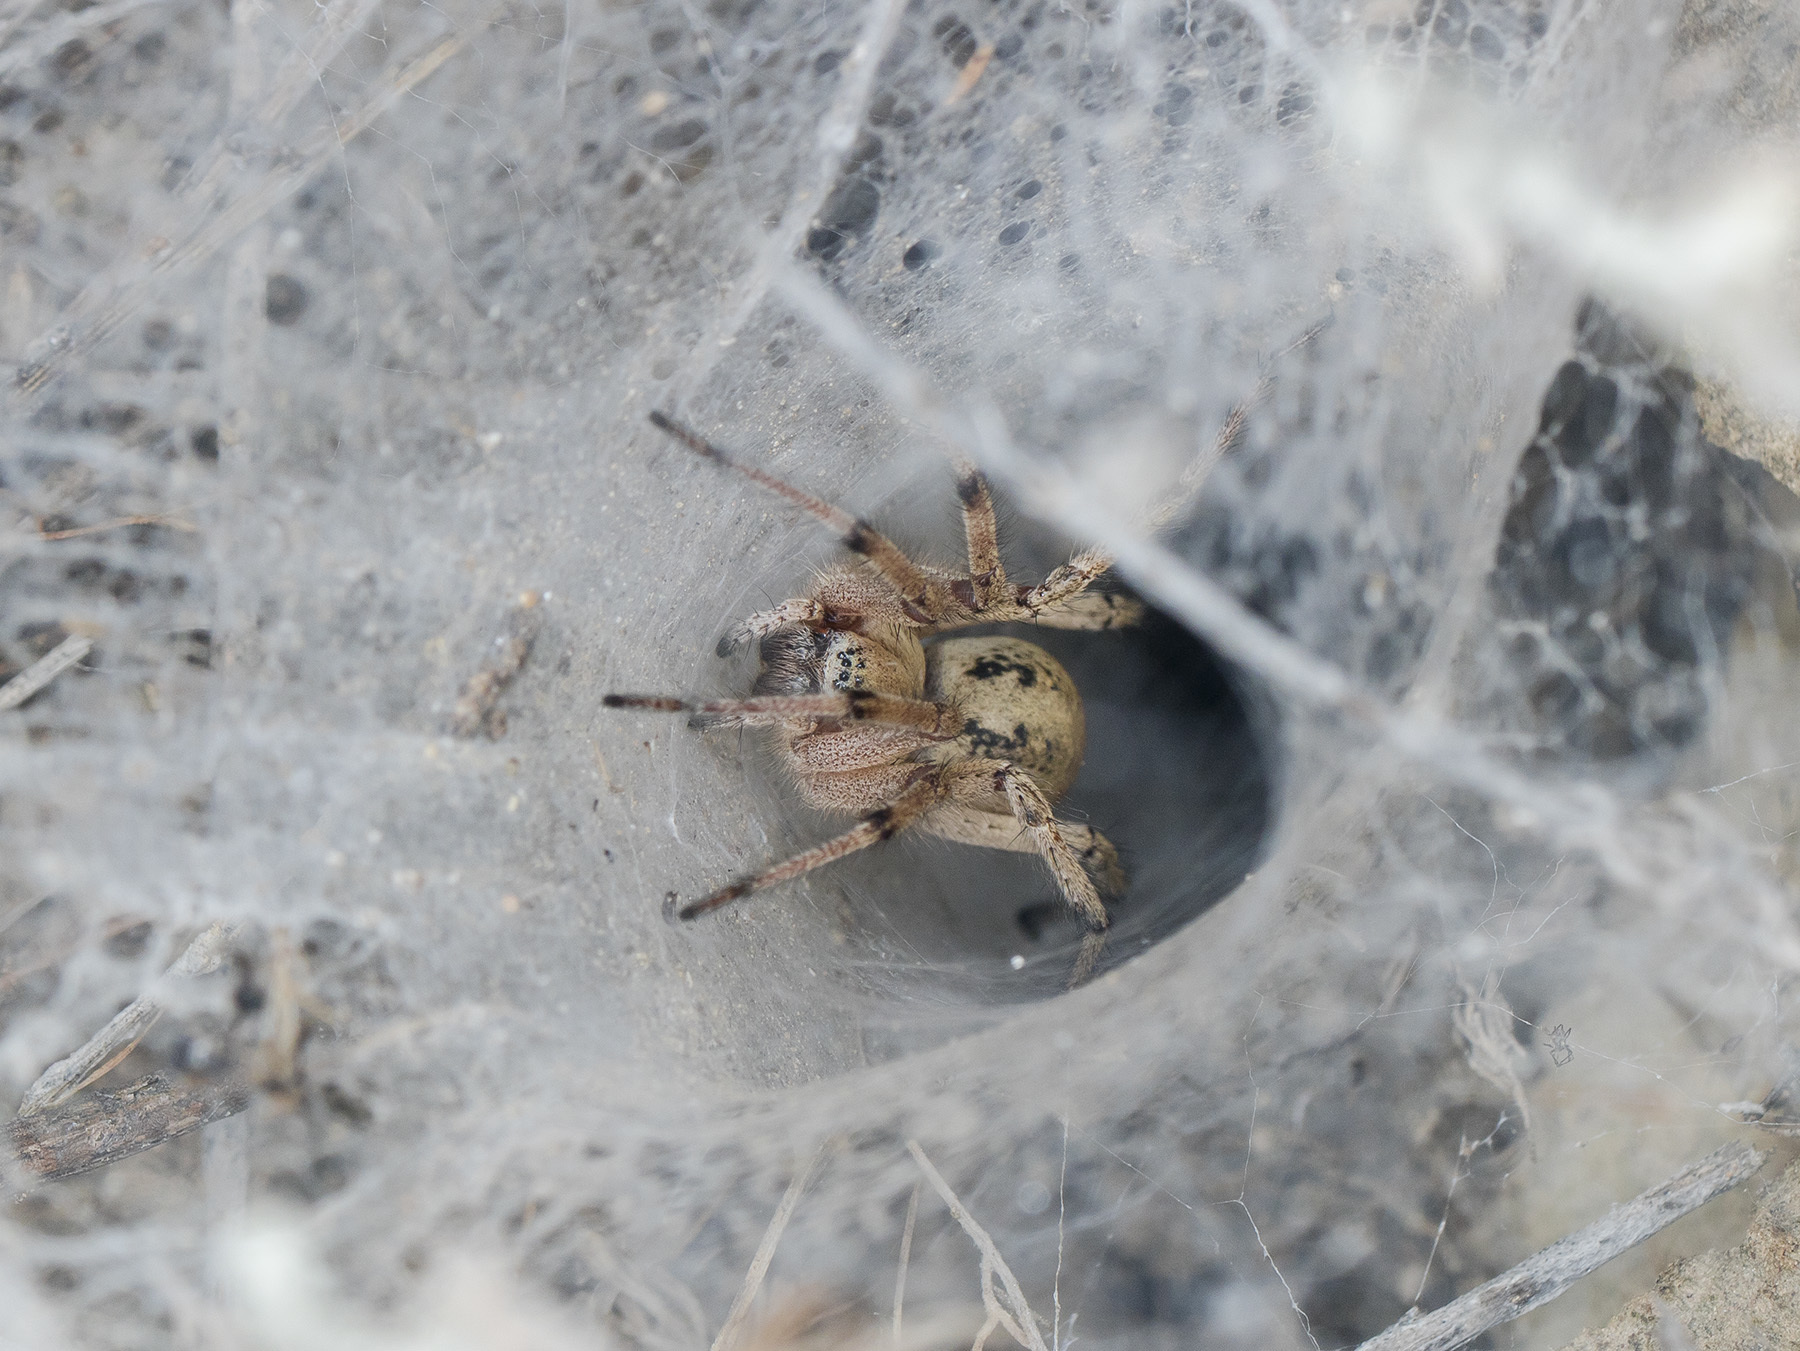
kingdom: Animalia
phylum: Arthropoda
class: Arachnida
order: Araneae
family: Agelenidae
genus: Agelena
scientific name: Agelena orientalis
